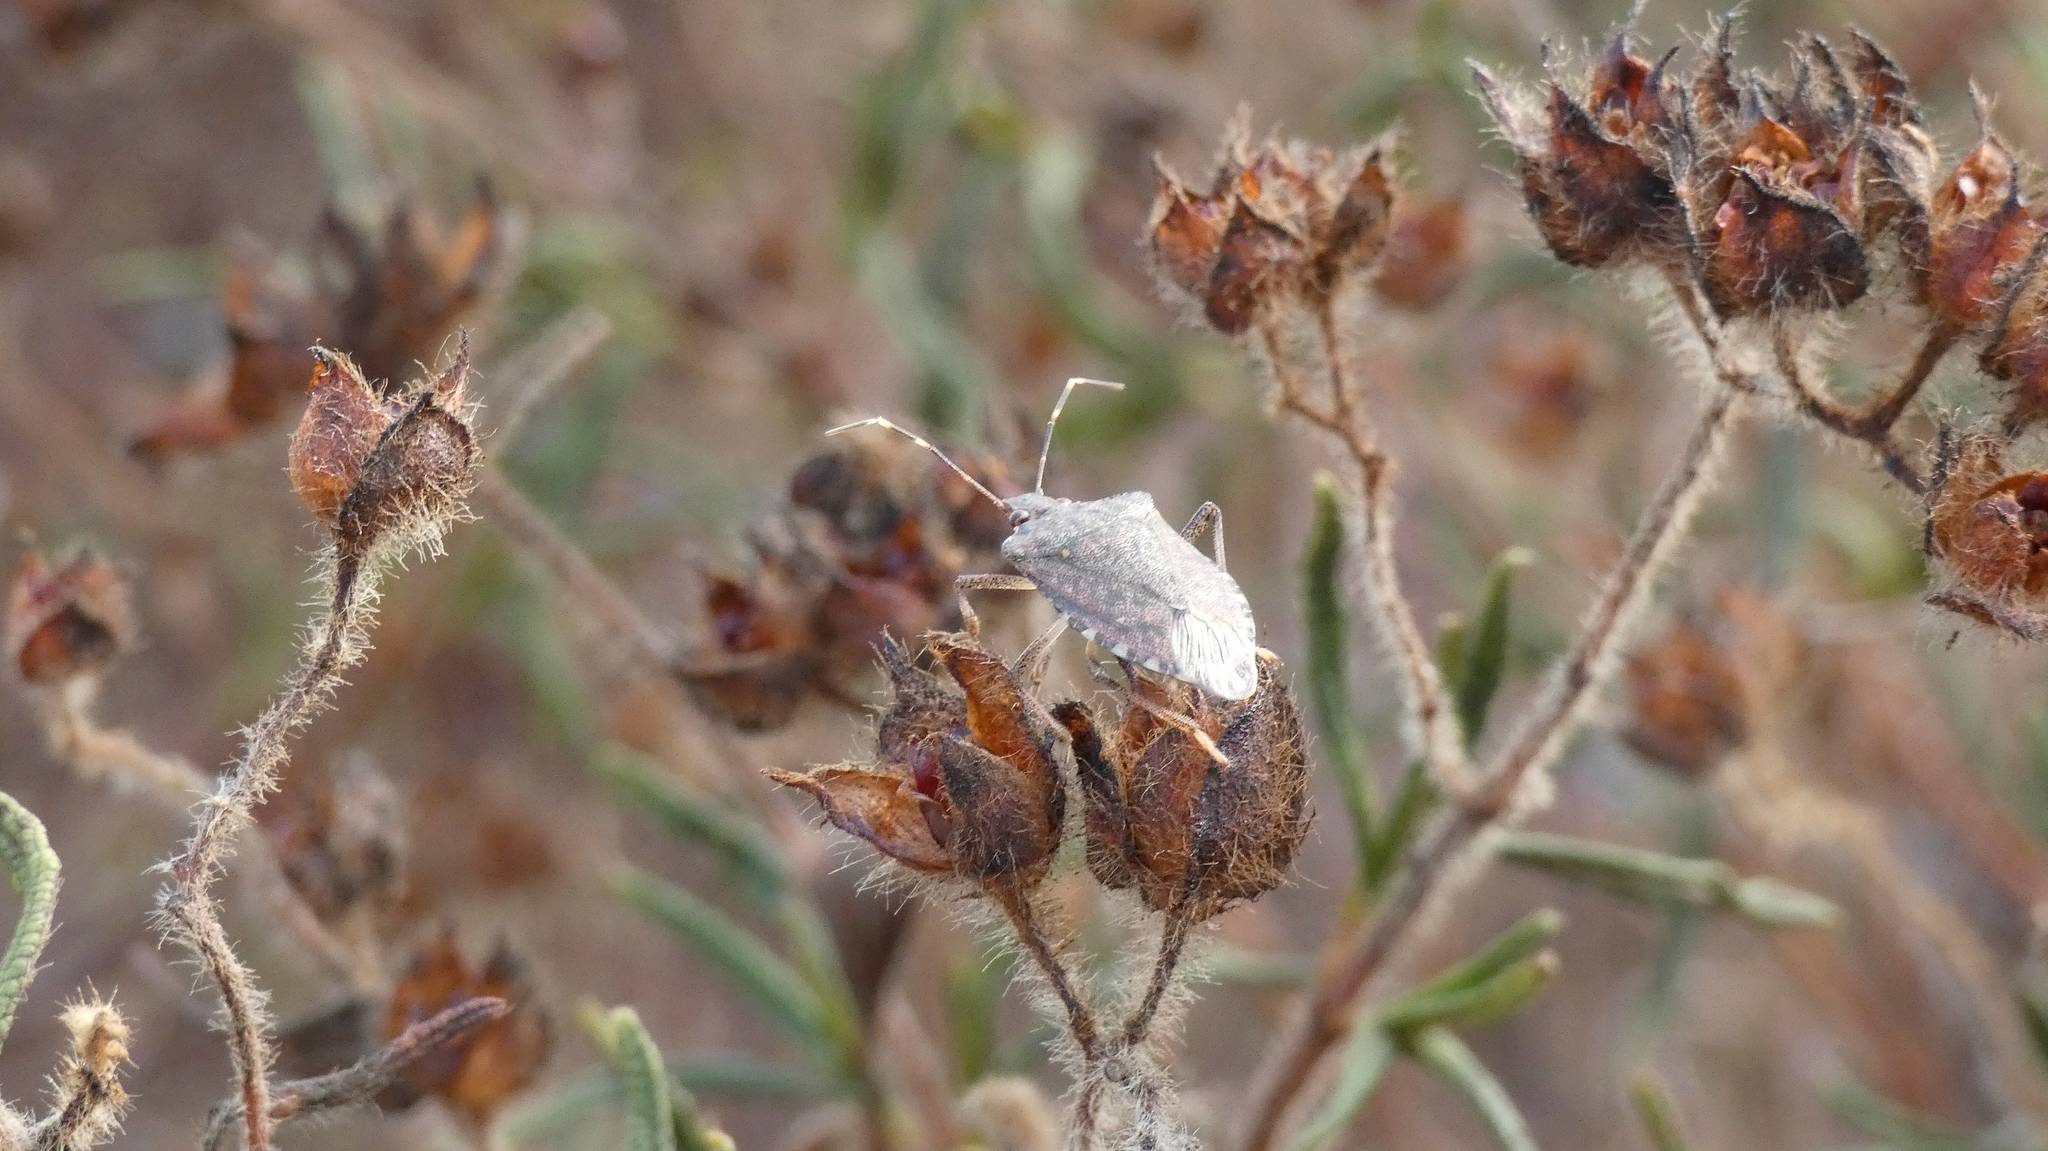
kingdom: Animalia
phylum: Arthropoda
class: Insecta
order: Hemiptera
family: Pentatomidae
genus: Halyomorpha
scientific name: Halyomorpha halys
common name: Brown marmorated stink bug
